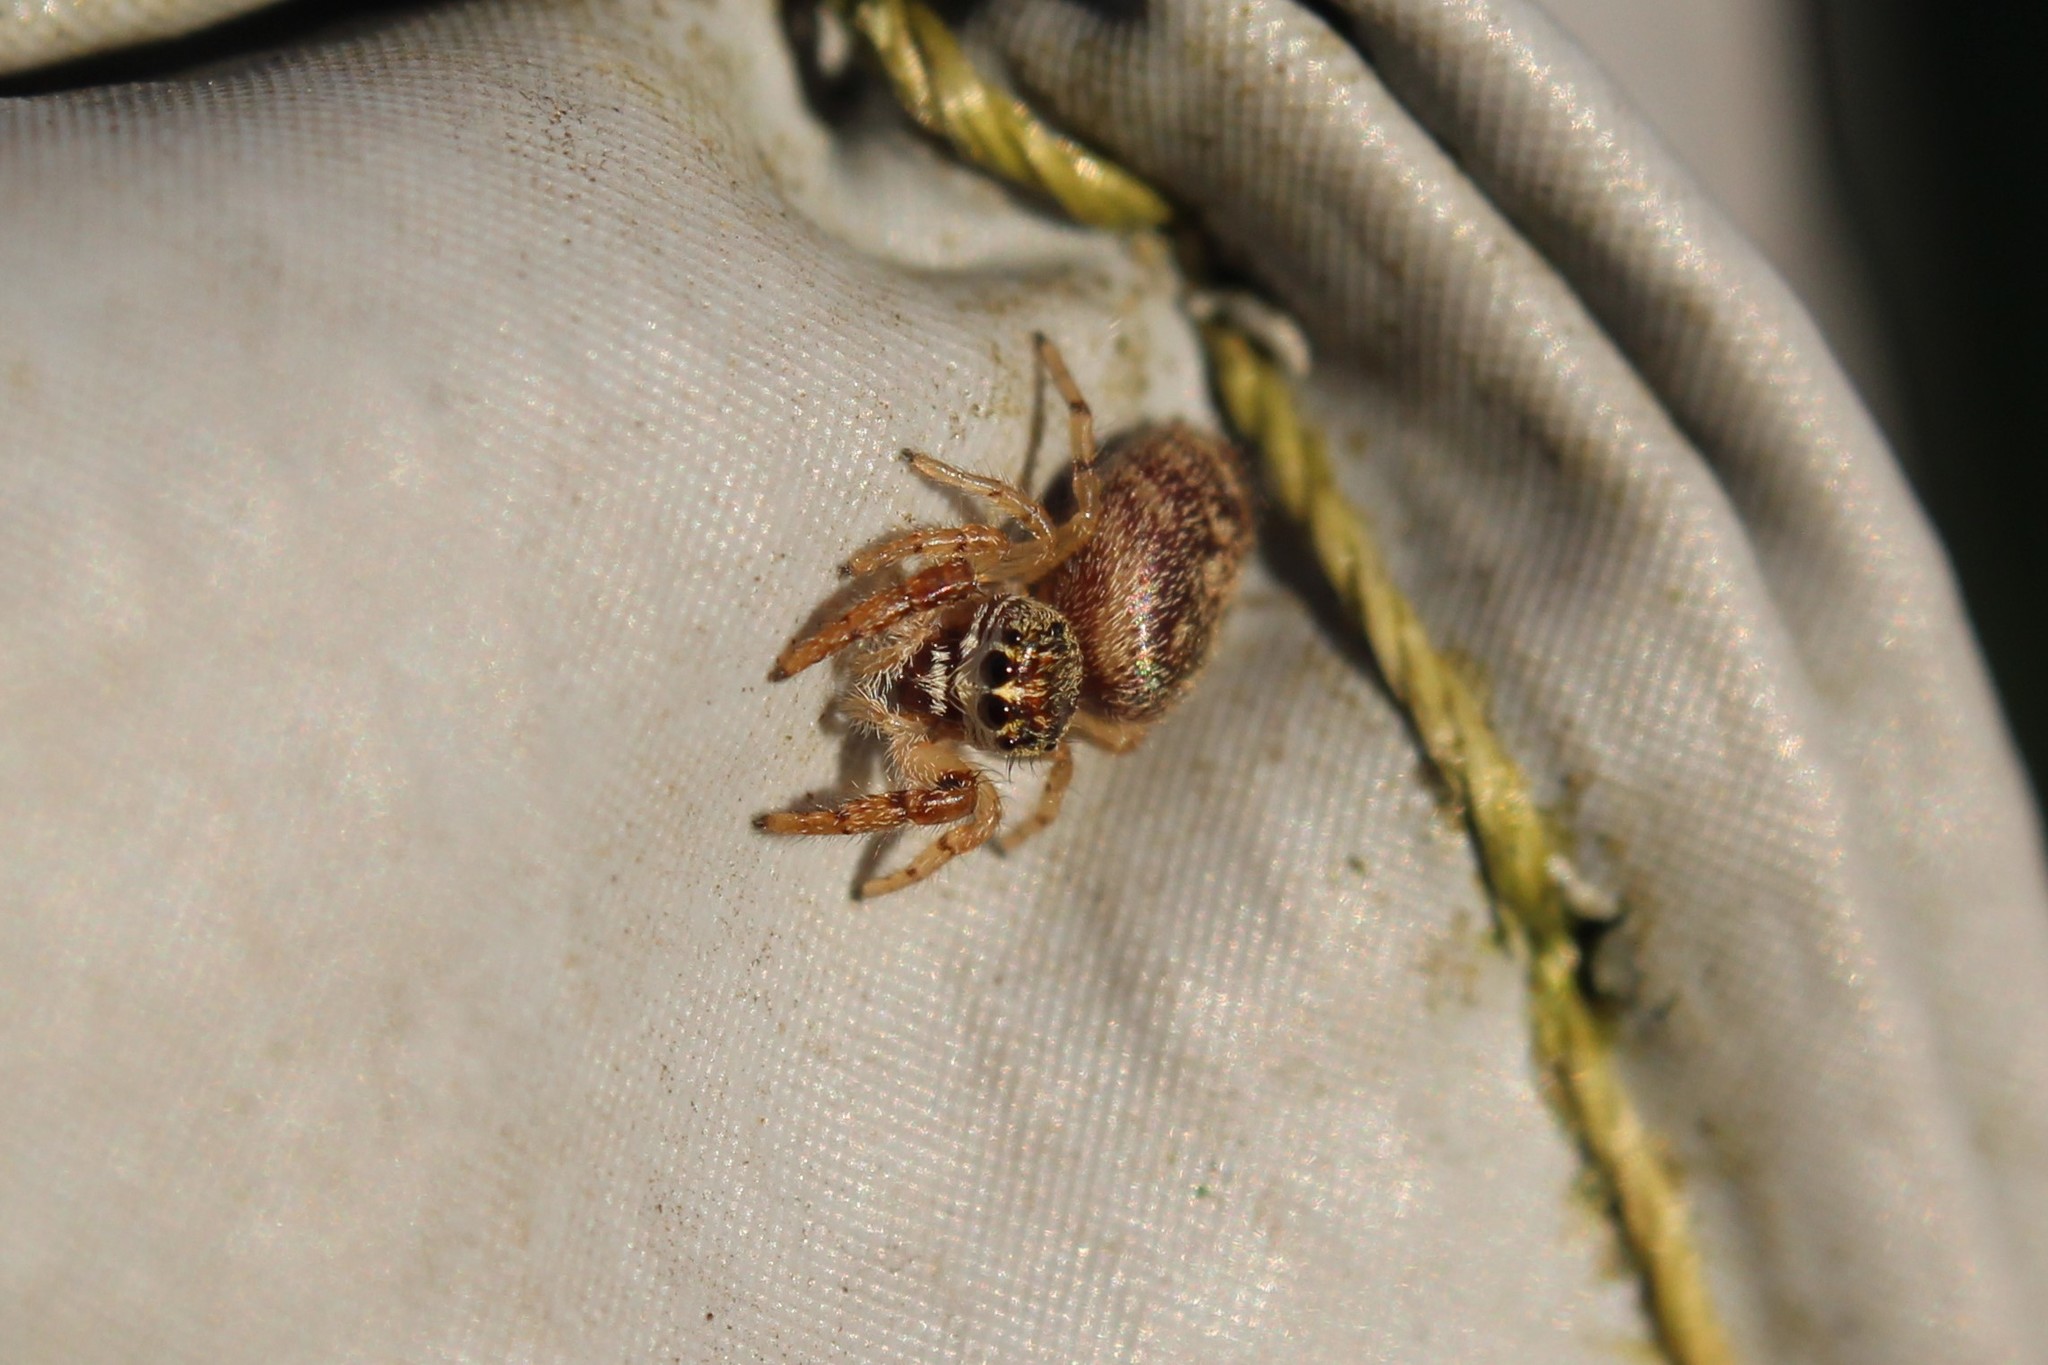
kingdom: Animalia
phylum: Arthropoda
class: Arachnida
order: Araneae
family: Salticidae
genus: Macaroeris
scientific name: Macaroeris nidicolens
